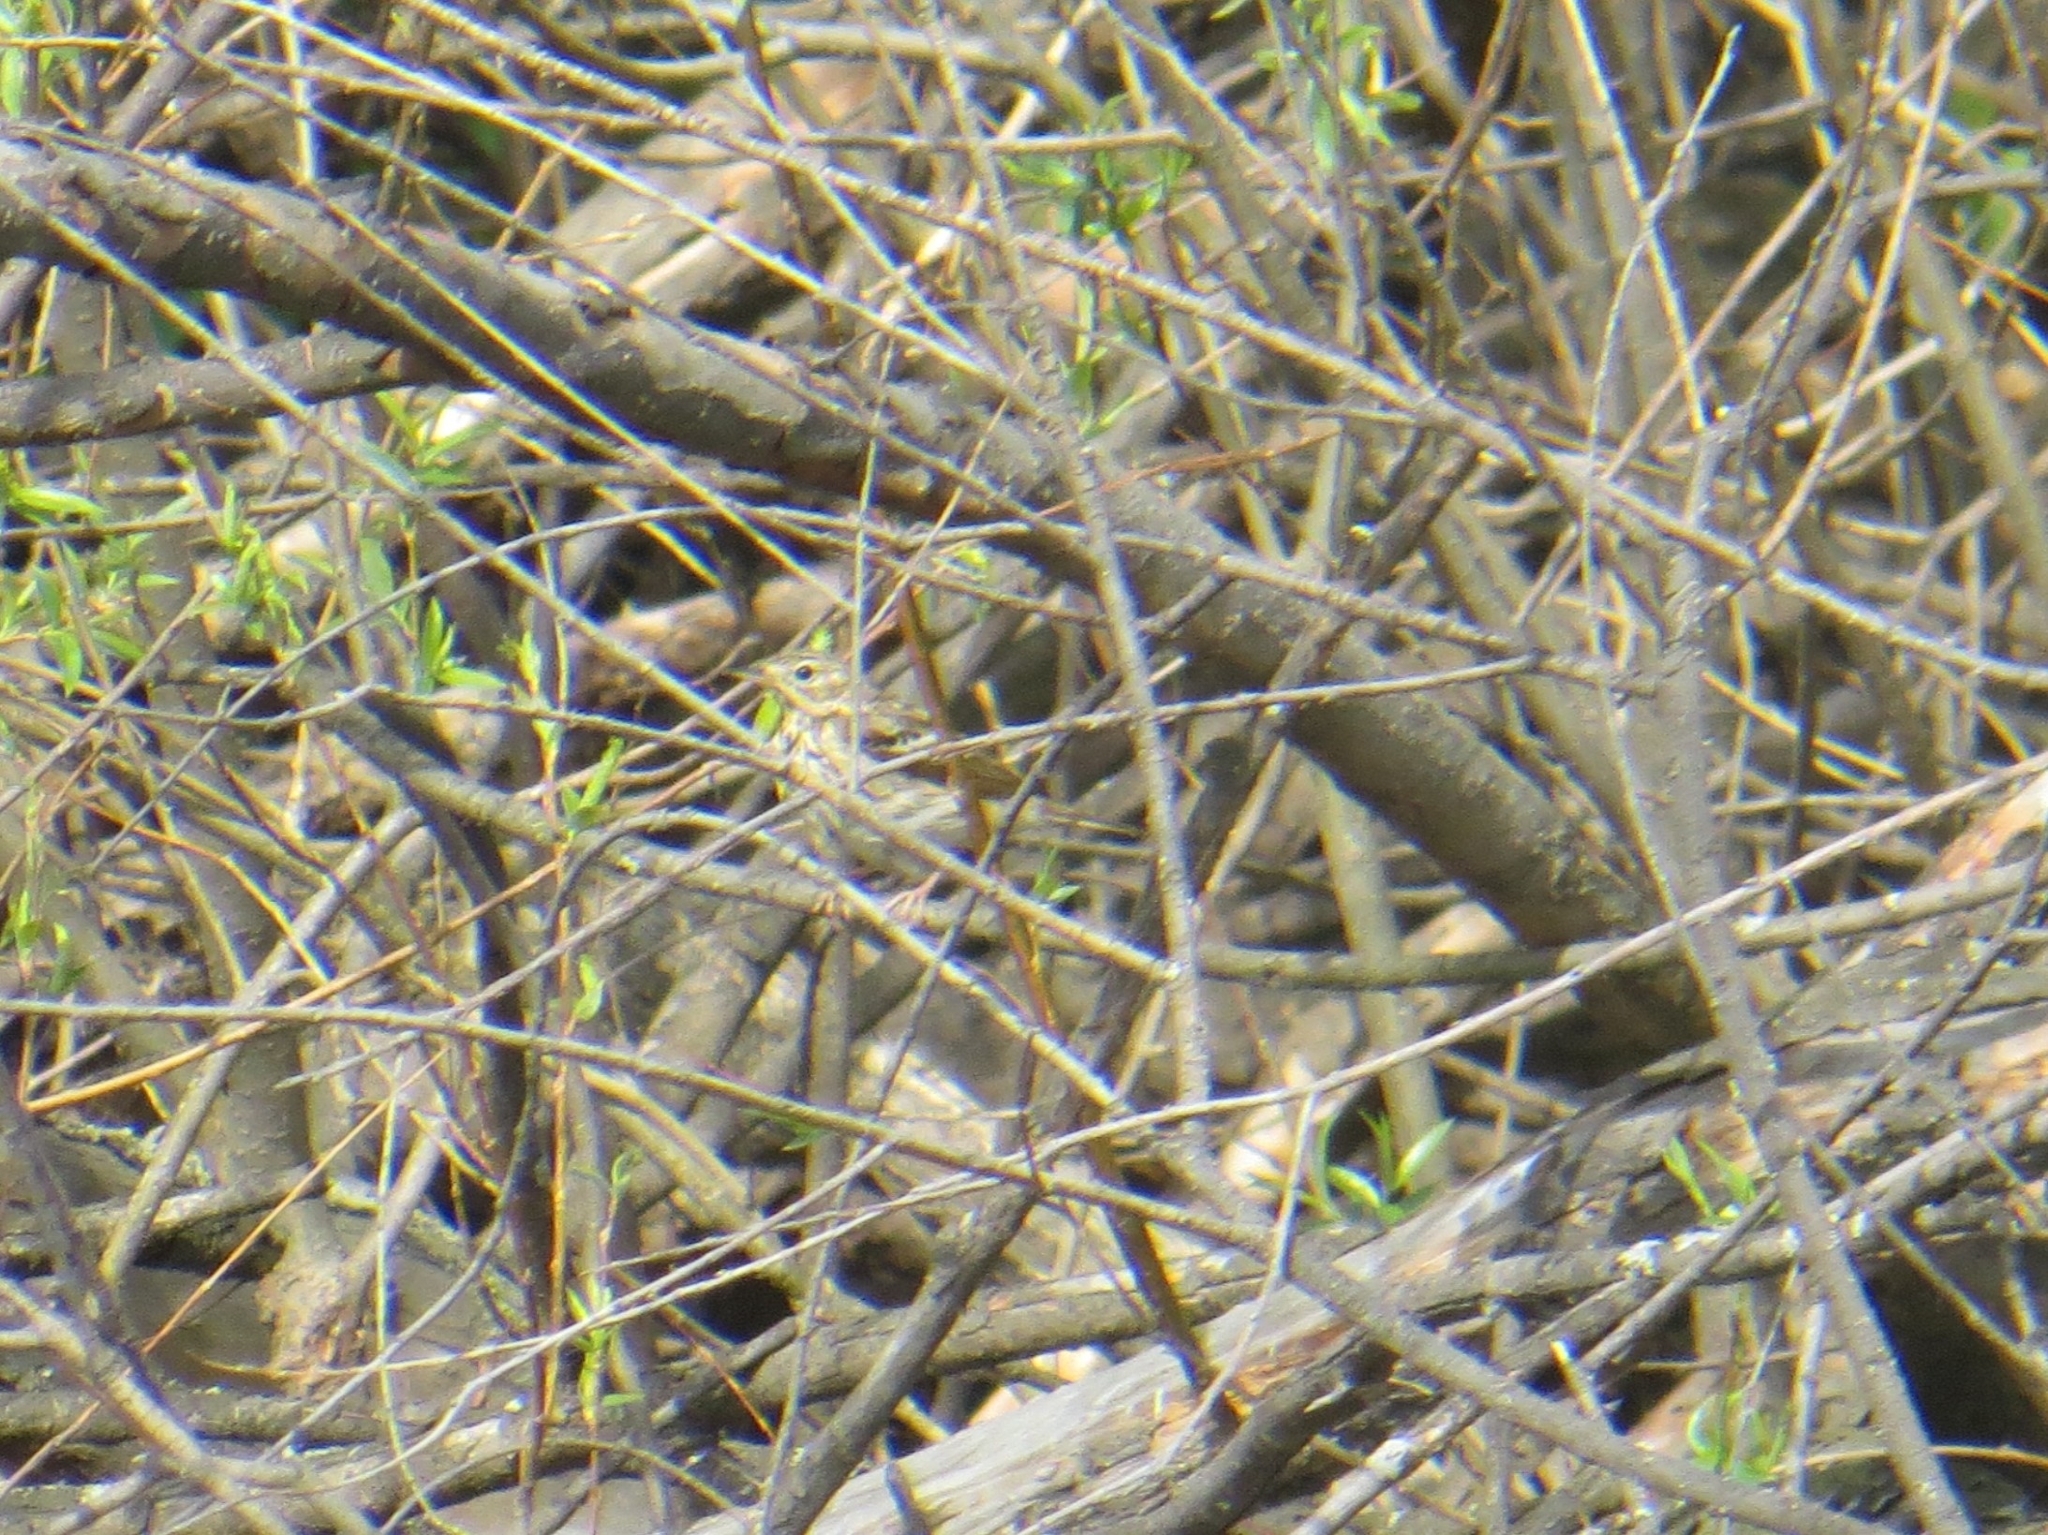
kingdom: Animalia
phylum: Chordata
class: Aves
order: Passeriformes
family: Motacillidae
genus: Anthus
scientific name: Anthus trivialis
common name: Tree pipit
